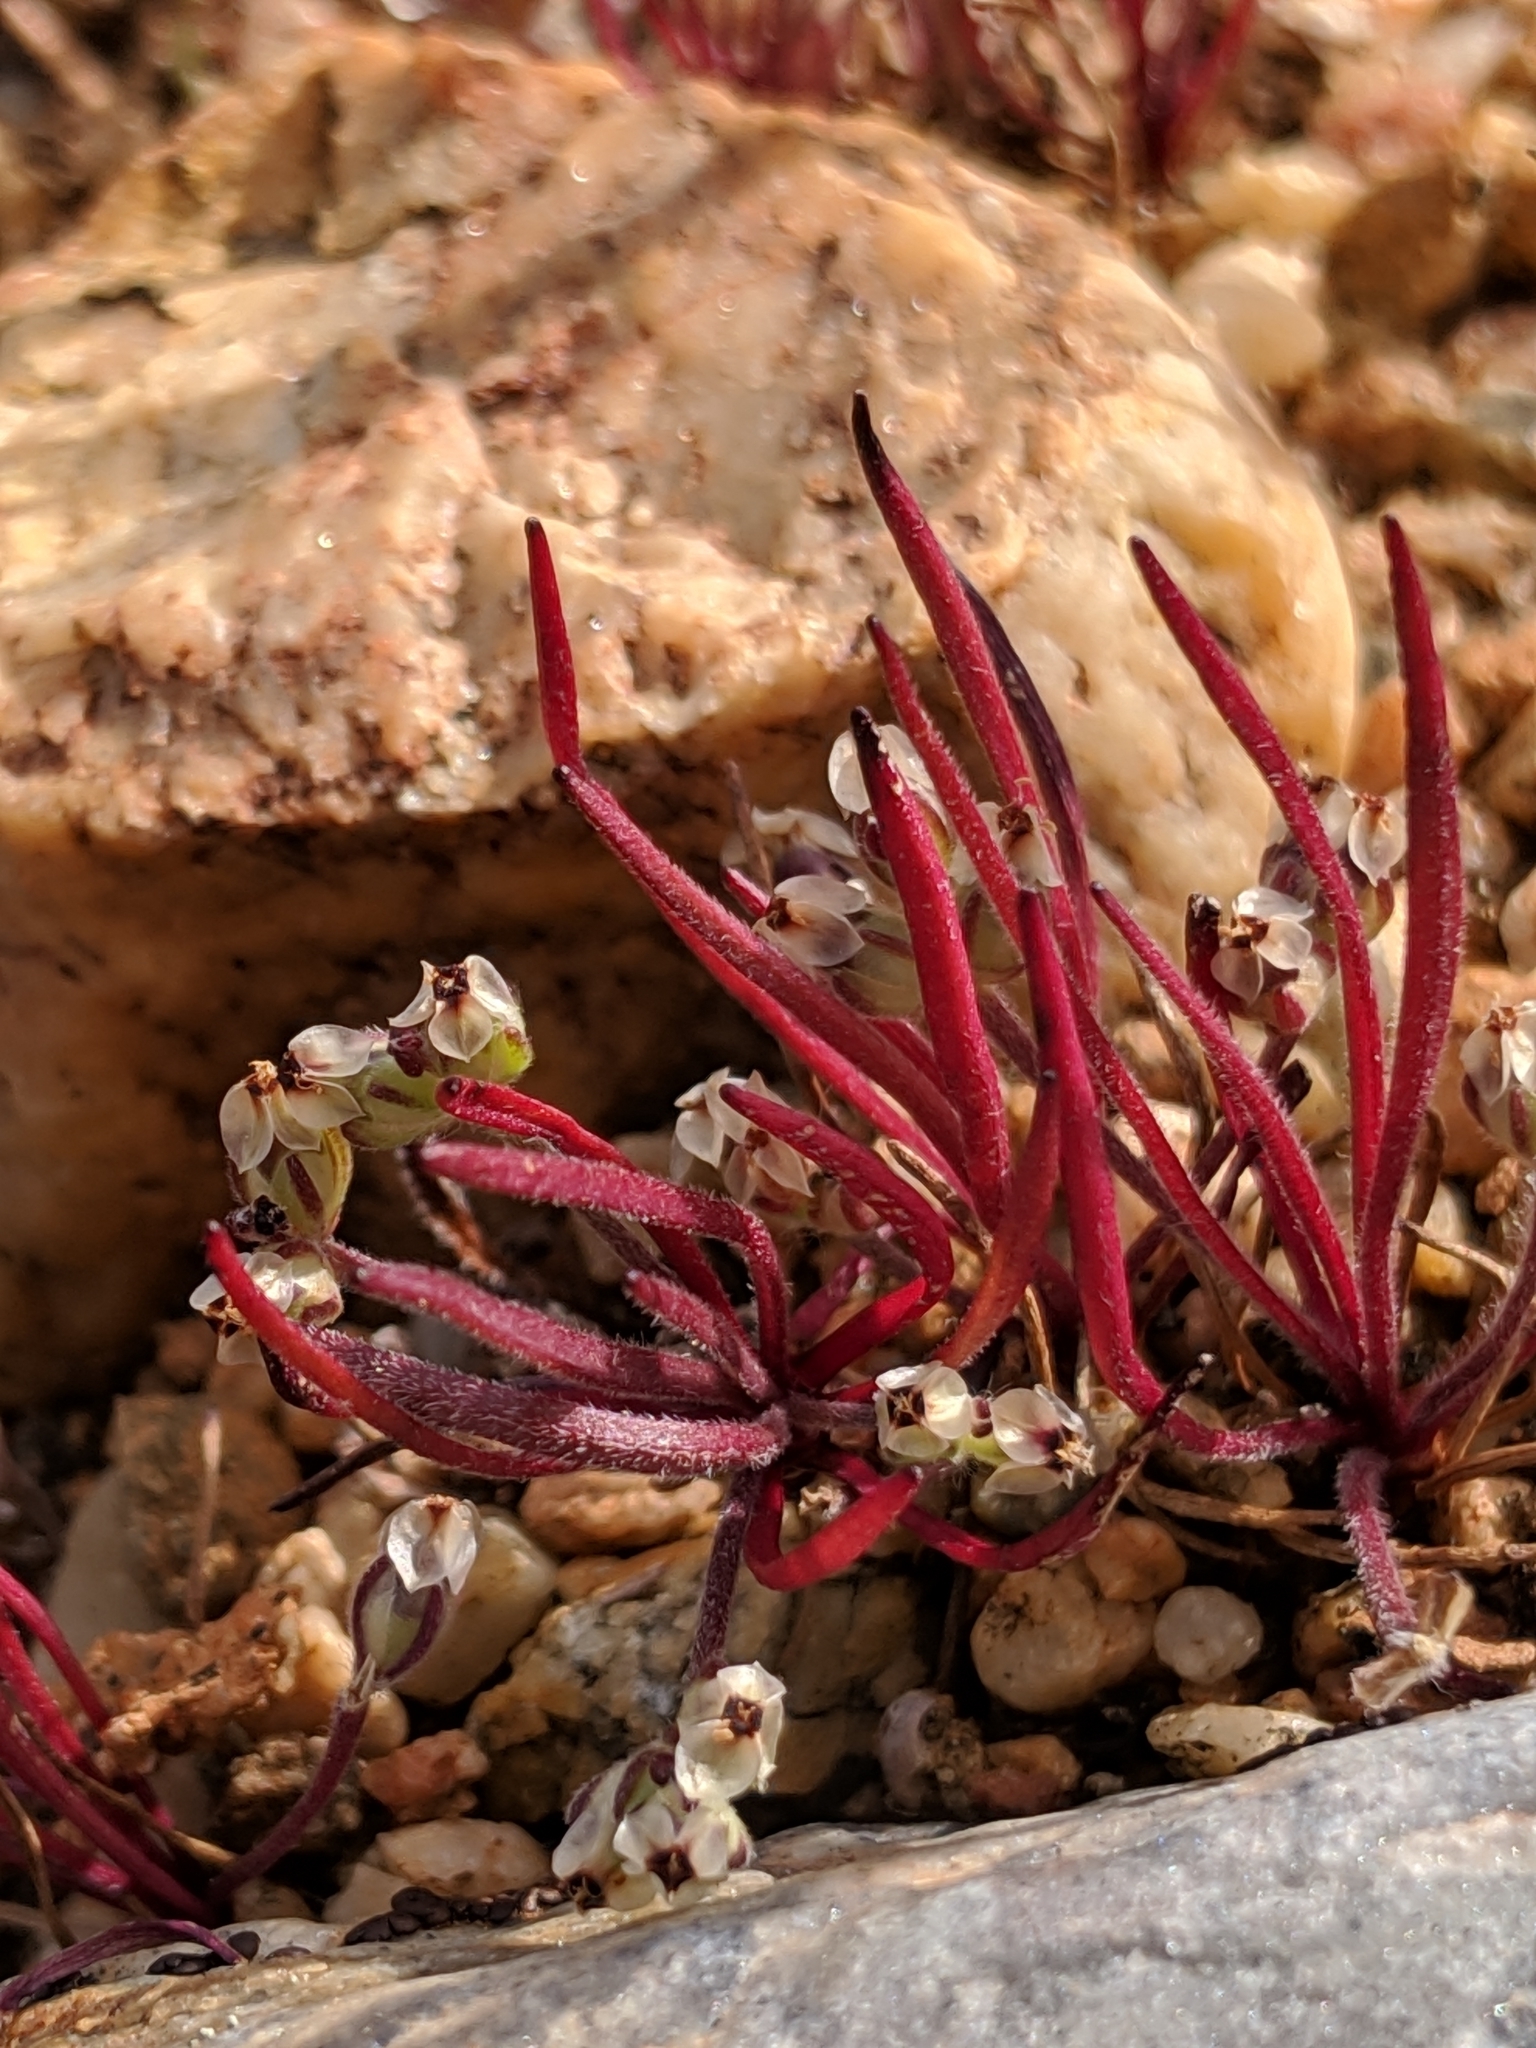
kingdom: Plantae
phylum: Tracheophyta
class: Magnoliopsida
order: Lamiales
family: Plantaginaceae
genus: Plantago
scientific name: Plantago erecta
